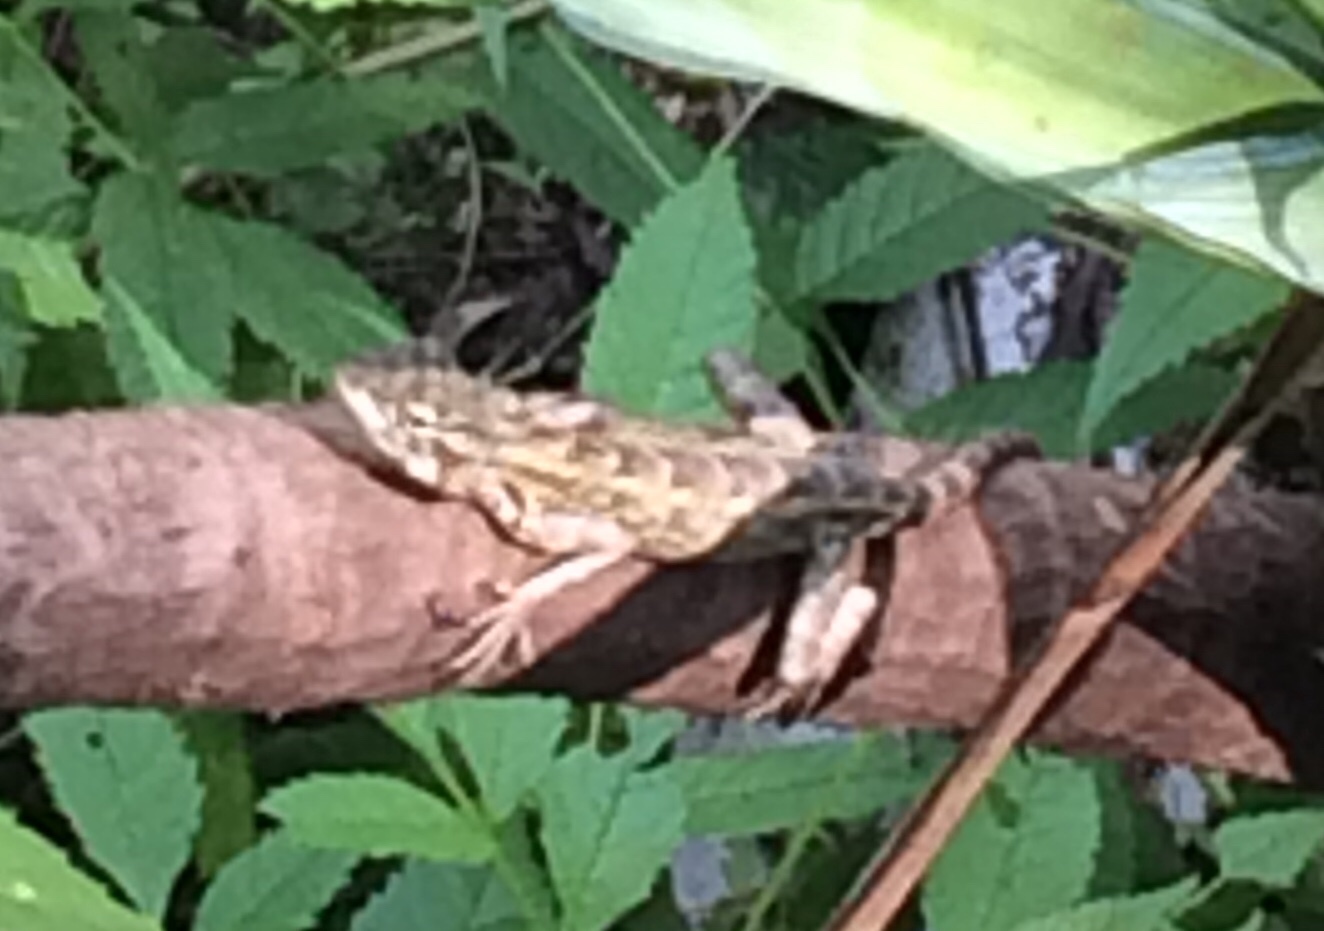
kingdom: Animalia
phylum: Chordata
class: Squamata
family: Agamidae
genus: Calotes
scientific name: Calotes versicolor
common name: Oriental garden lizard
